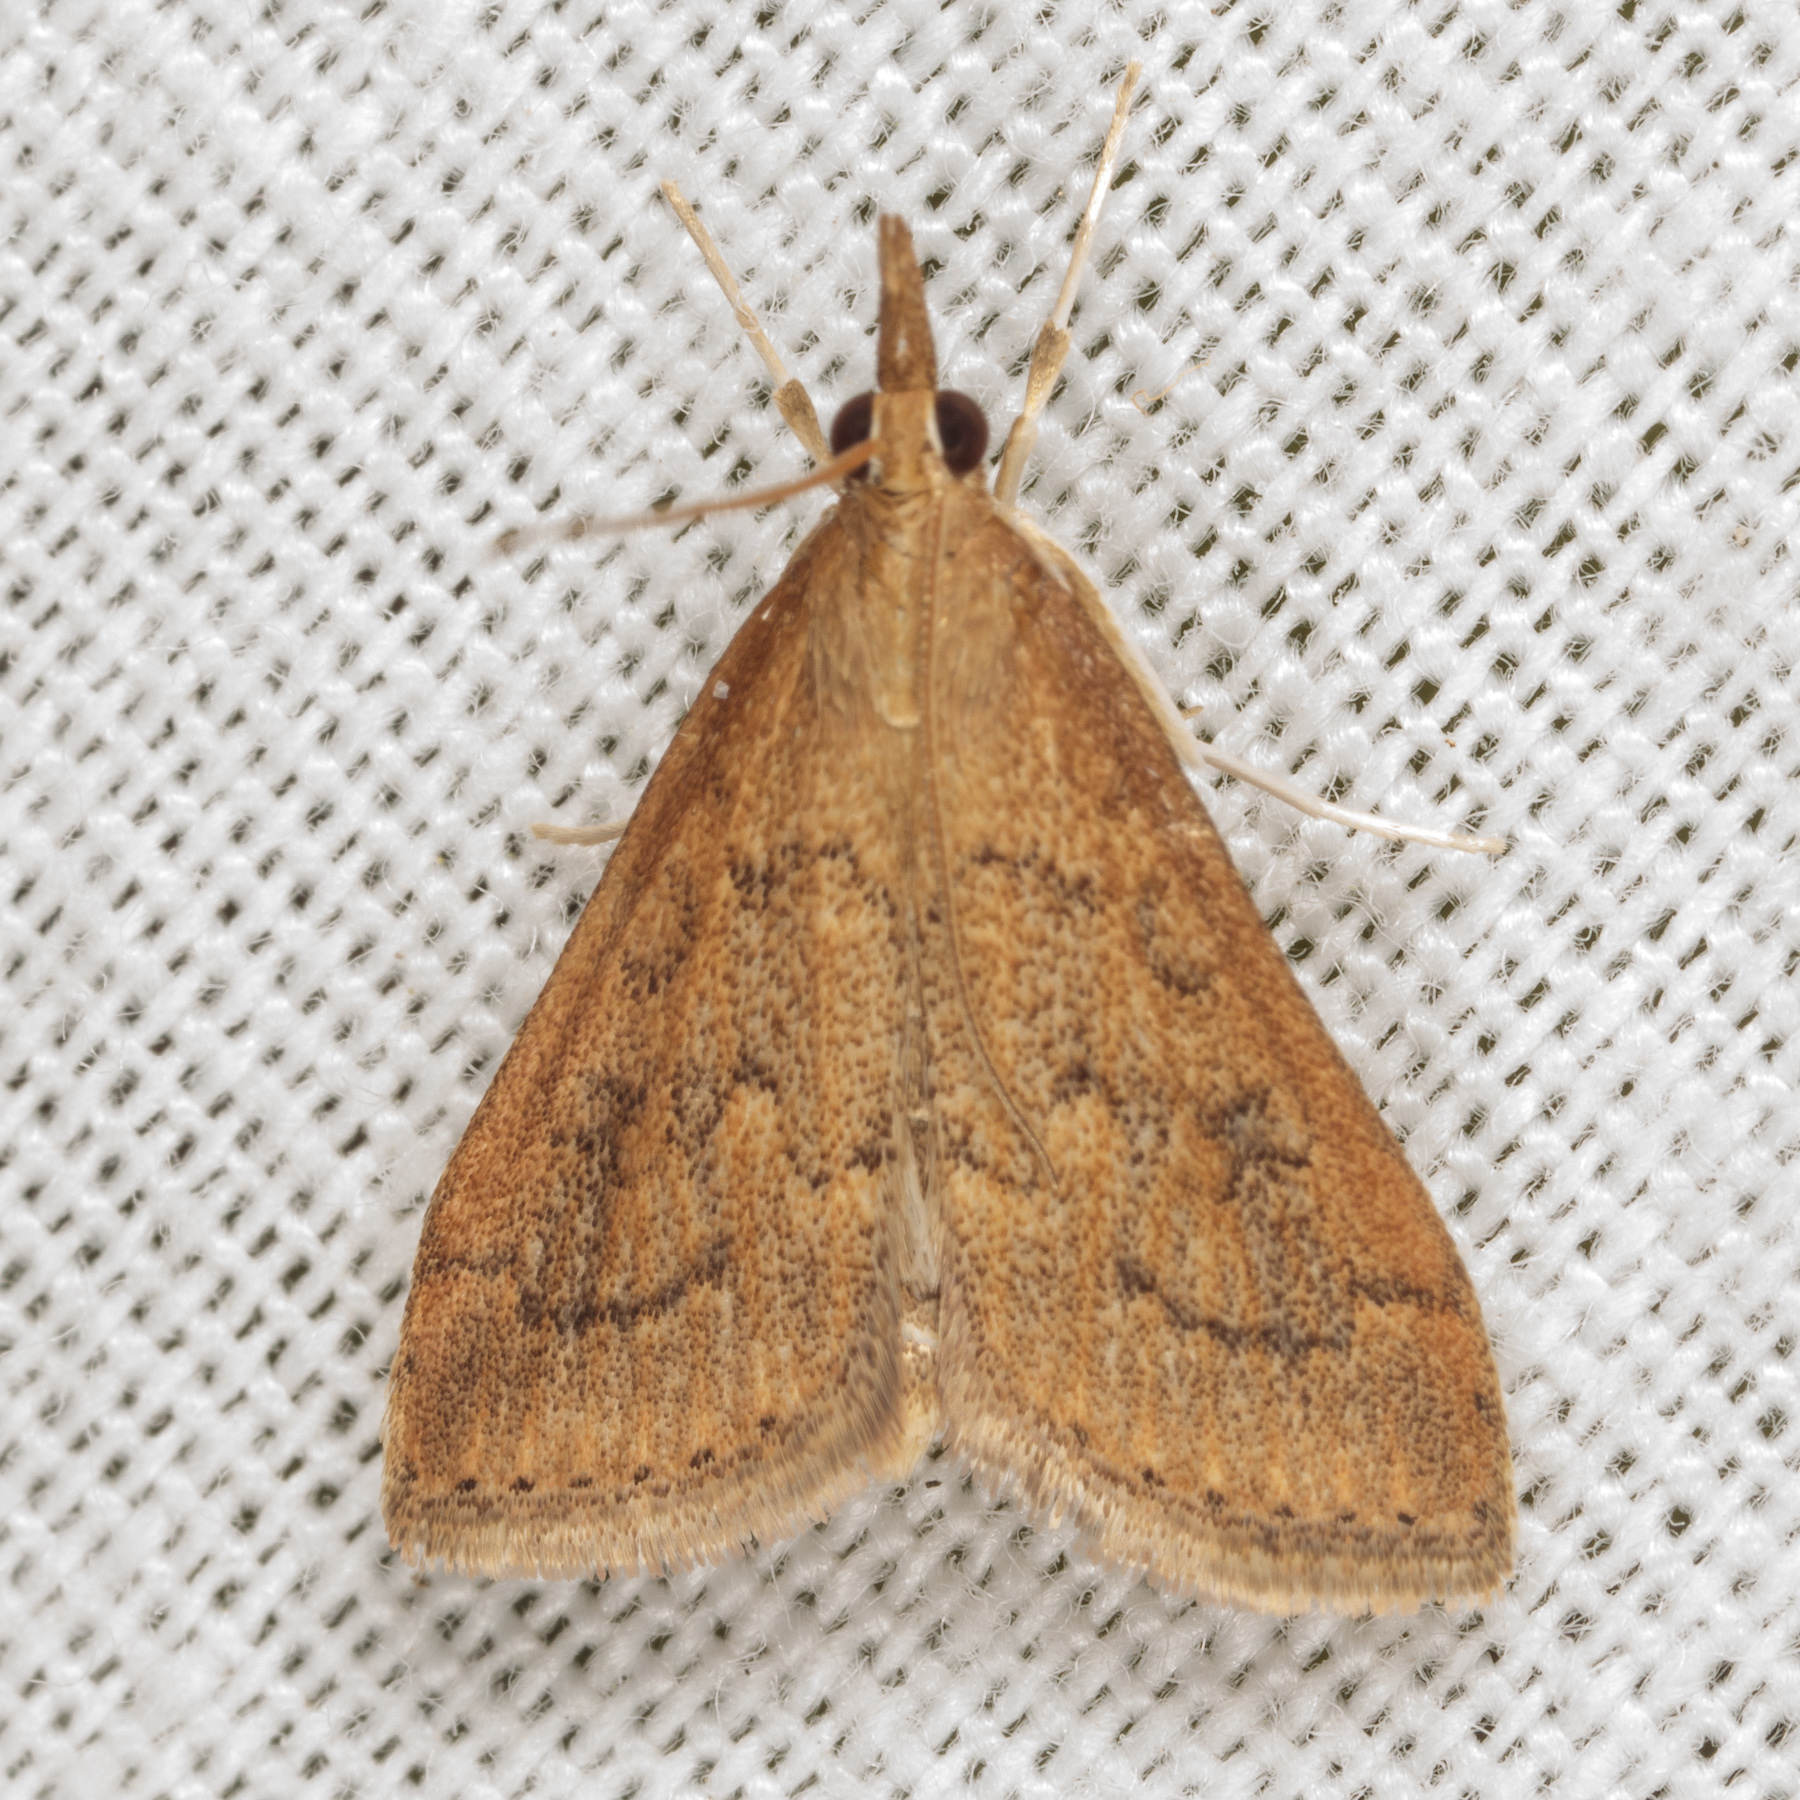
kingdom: Animalia
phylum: Arthropoda
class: Insecta
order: Lepidoptera
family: Crambidae
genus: Udea
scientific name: Udea rubigalis
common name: Celery leaftier moth
